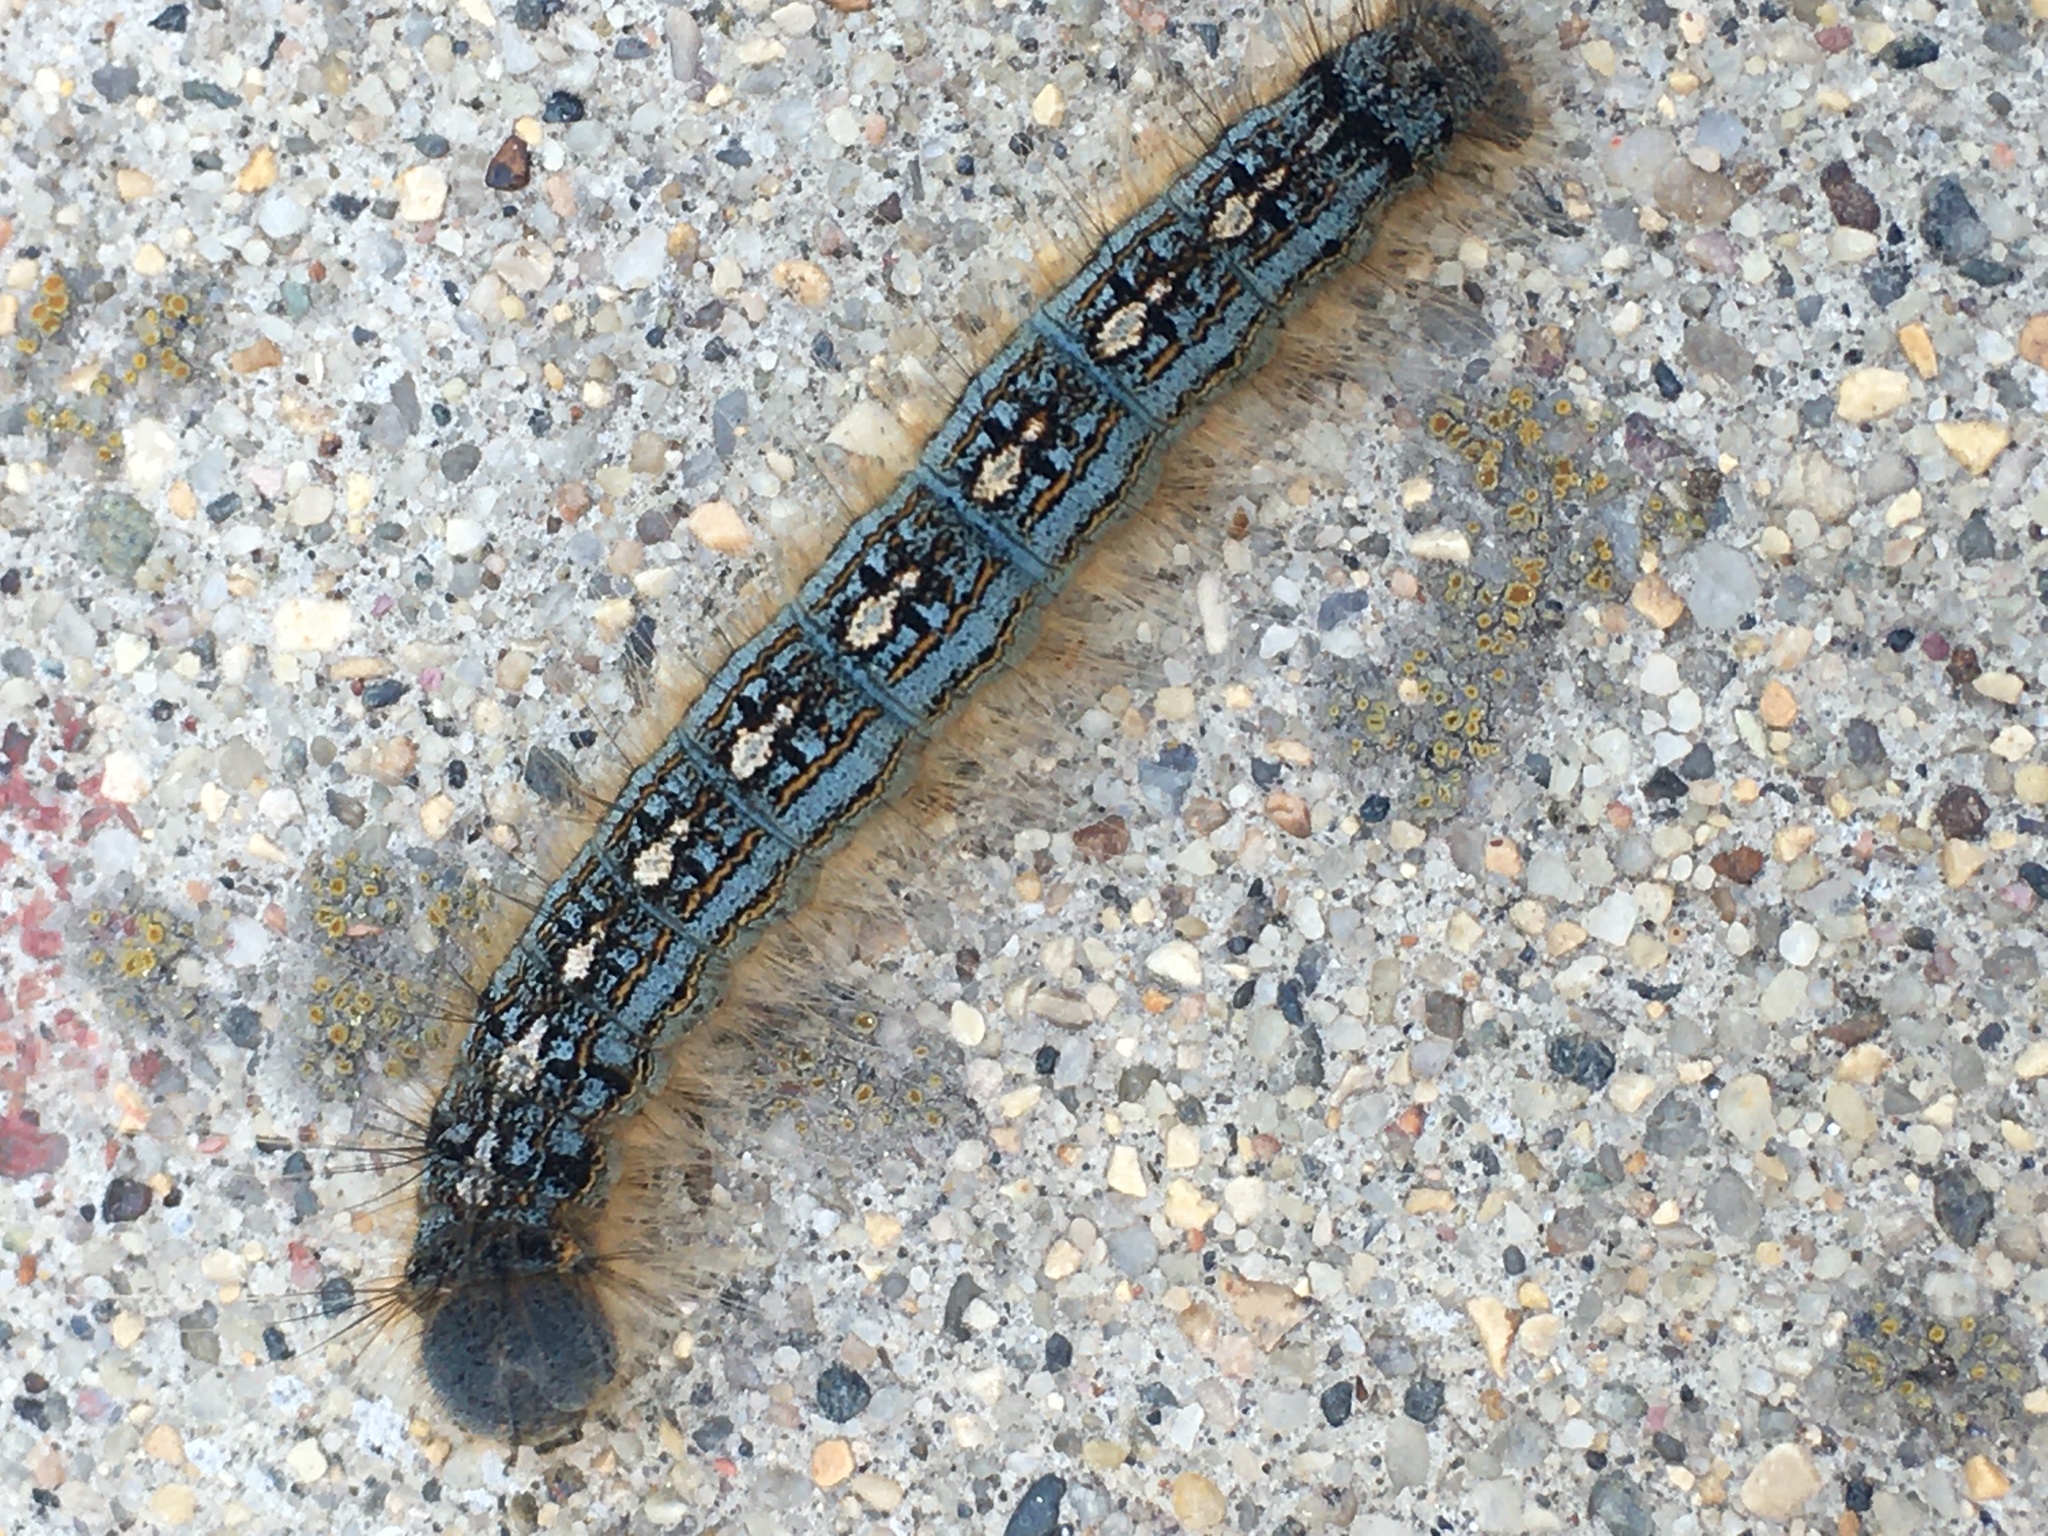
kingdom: Animalia
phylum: Arthropoda
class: Insecta
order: Lepidoptera
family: Lasiocampidae
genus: Malacosoma
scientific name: Malacosoma disstria
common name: Forest tent caterpillar
